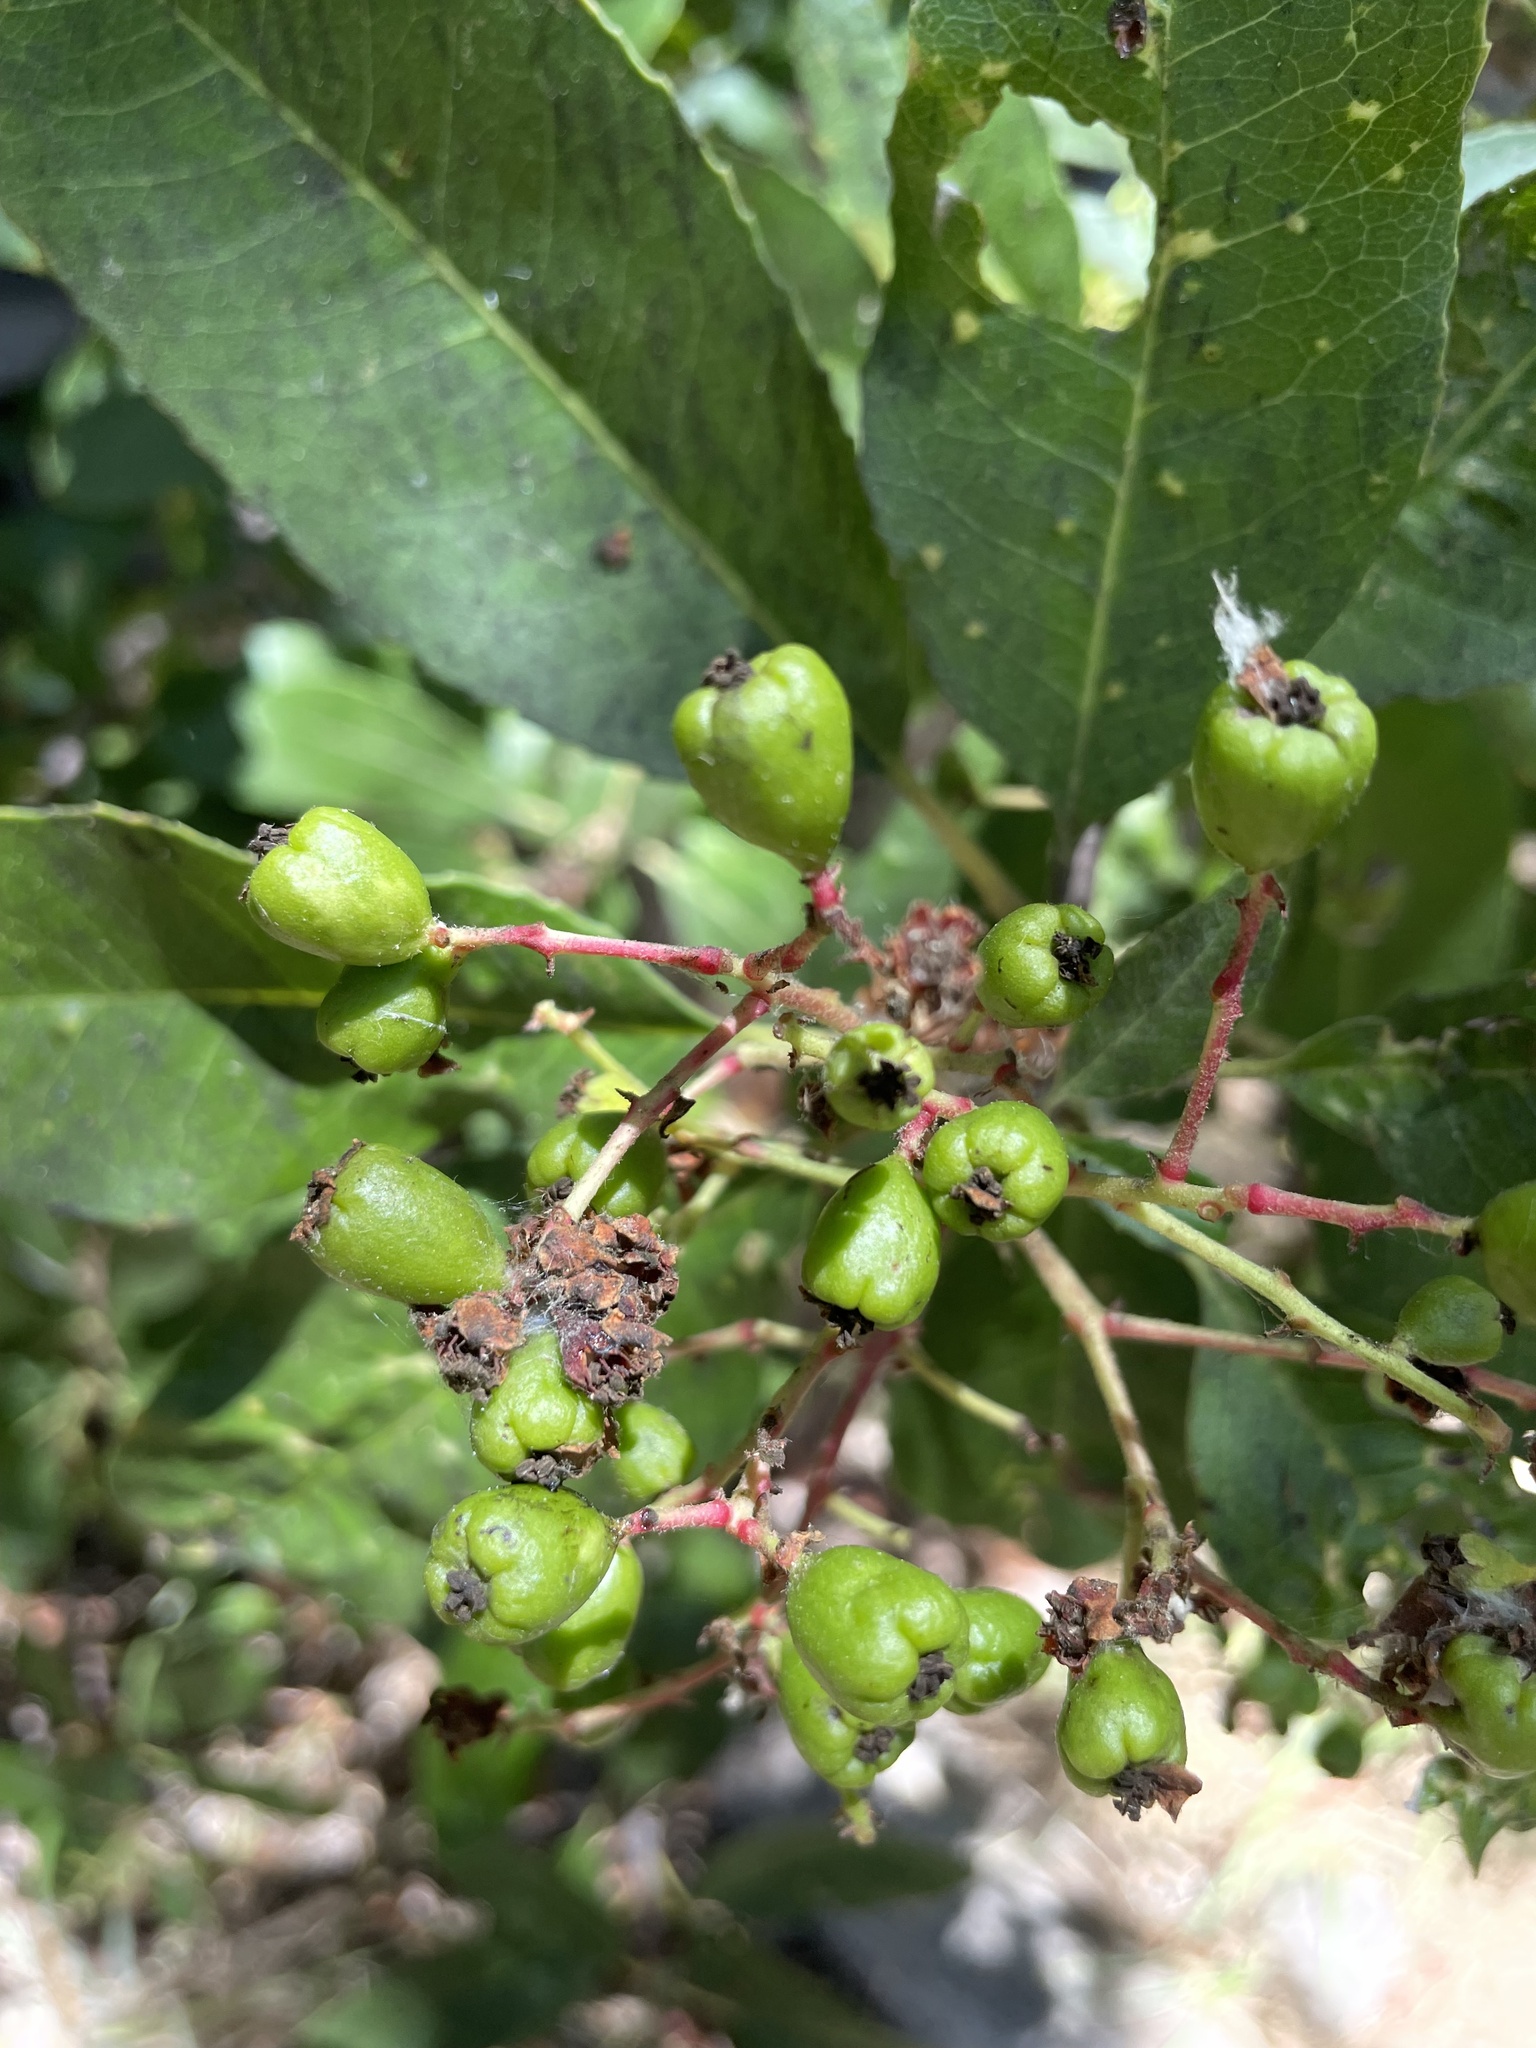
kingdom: Plantae
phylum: Tracheophyta
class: Magnoliopsida
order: Rosales
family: Rosaceae
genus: Heteromeles
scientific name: Heteromeles arbutifolia
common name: California-holly
